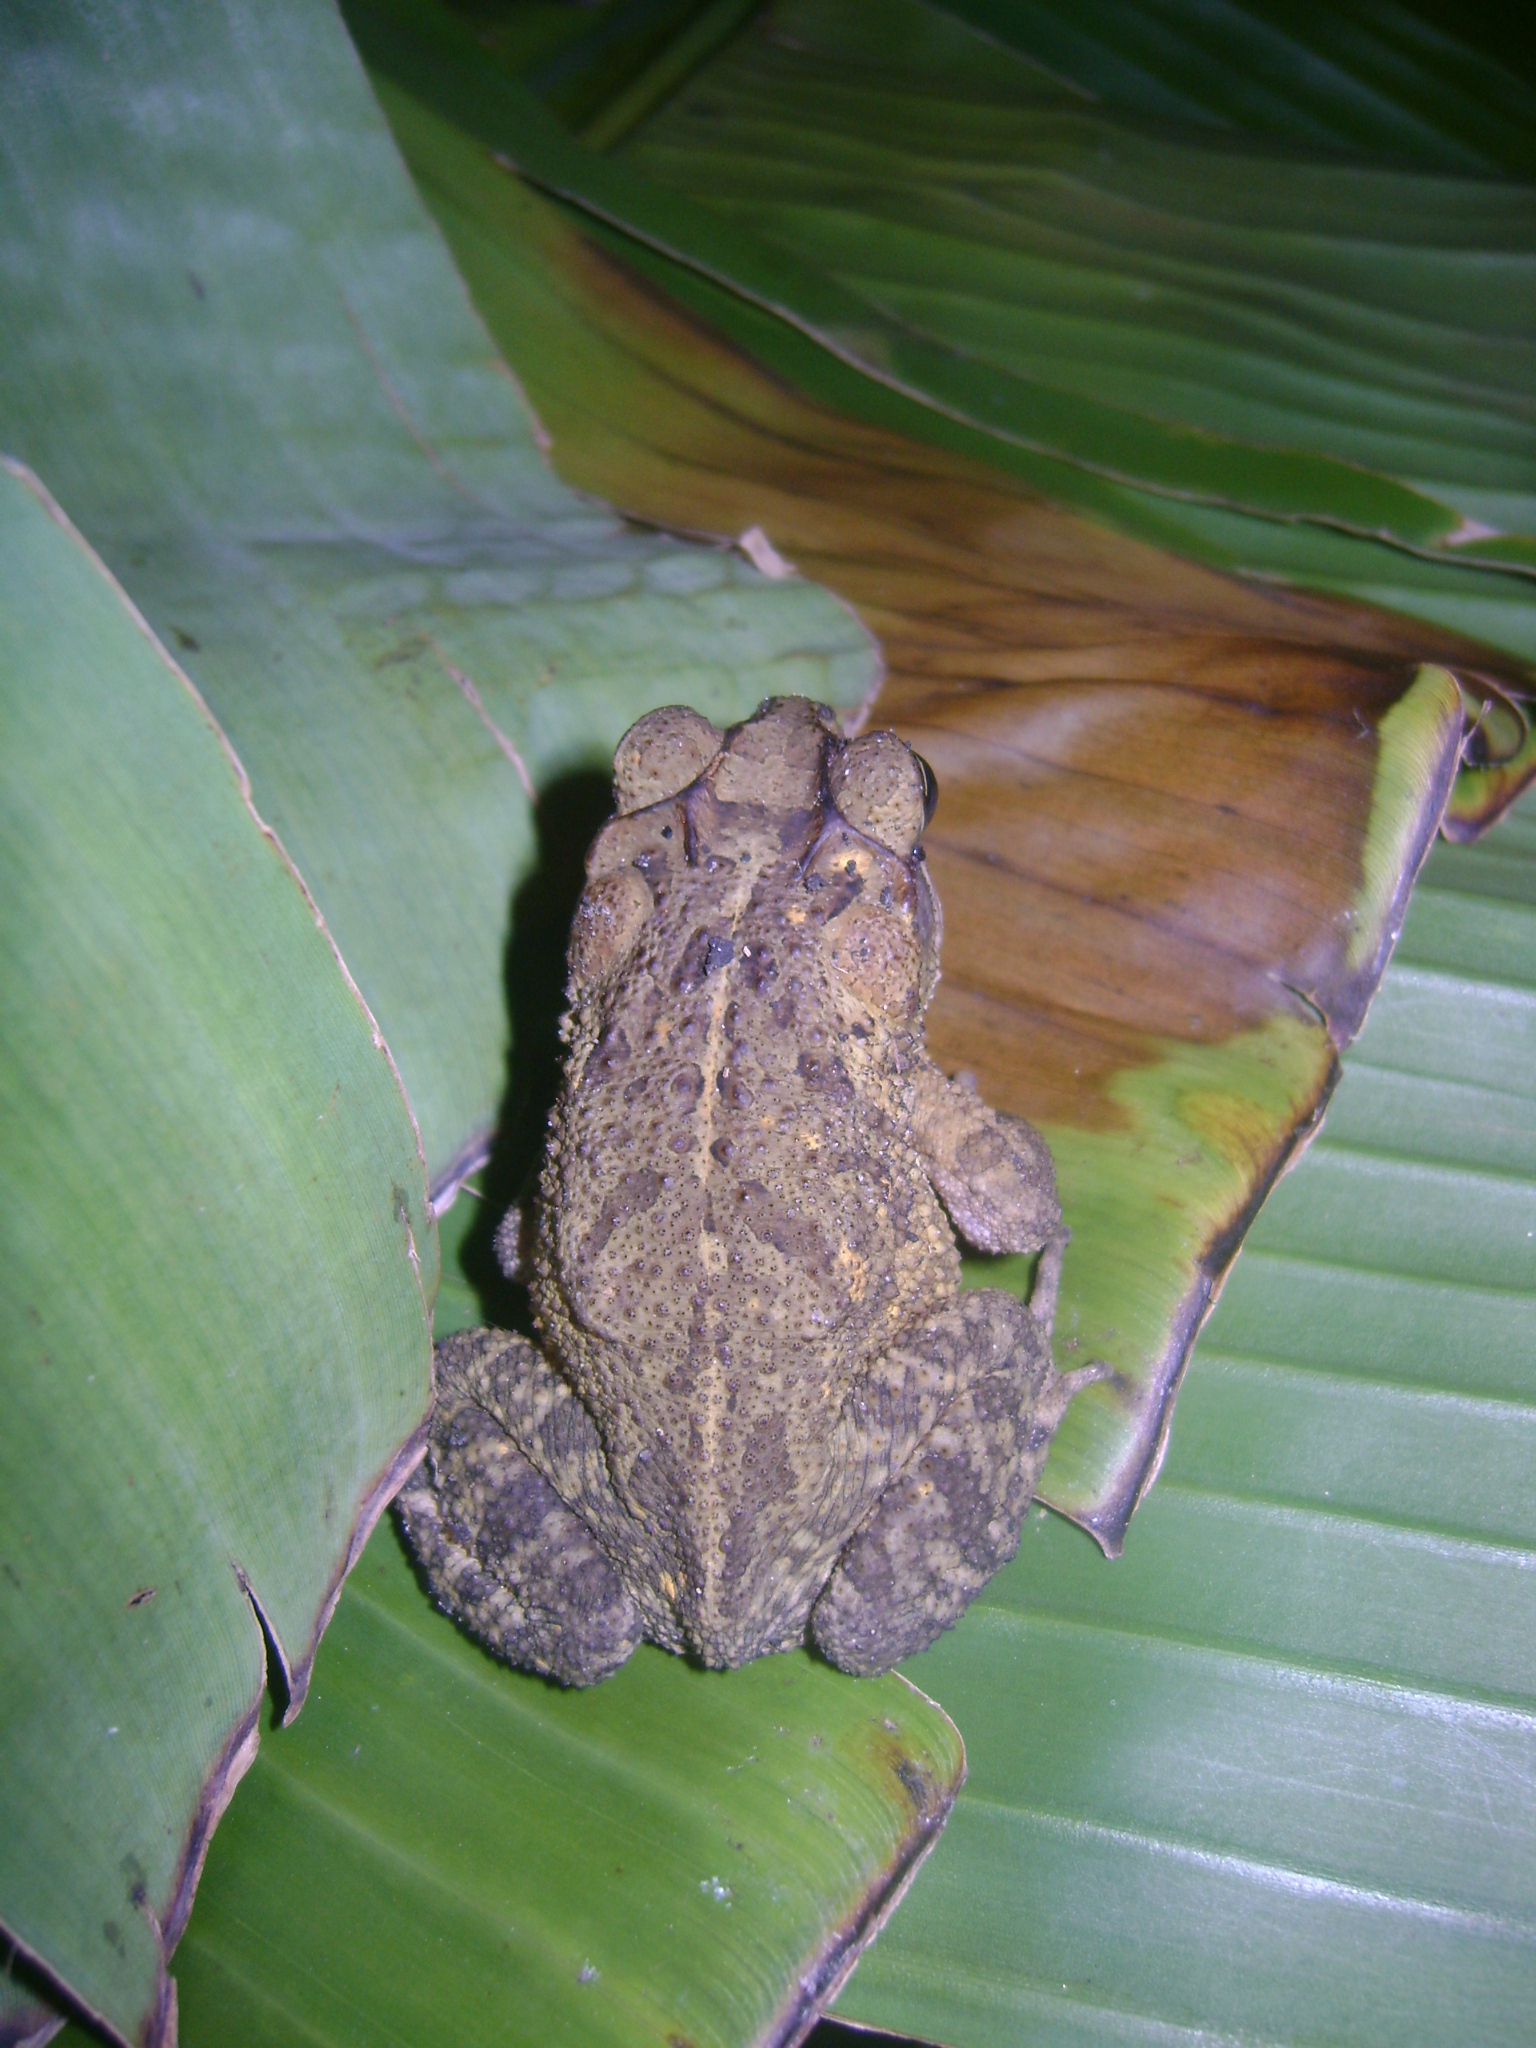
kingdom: Animalia
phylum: Chordata
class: Amphibia
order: Anura
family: Bufonidae
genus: Incilius
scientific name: Incilius valliceps
